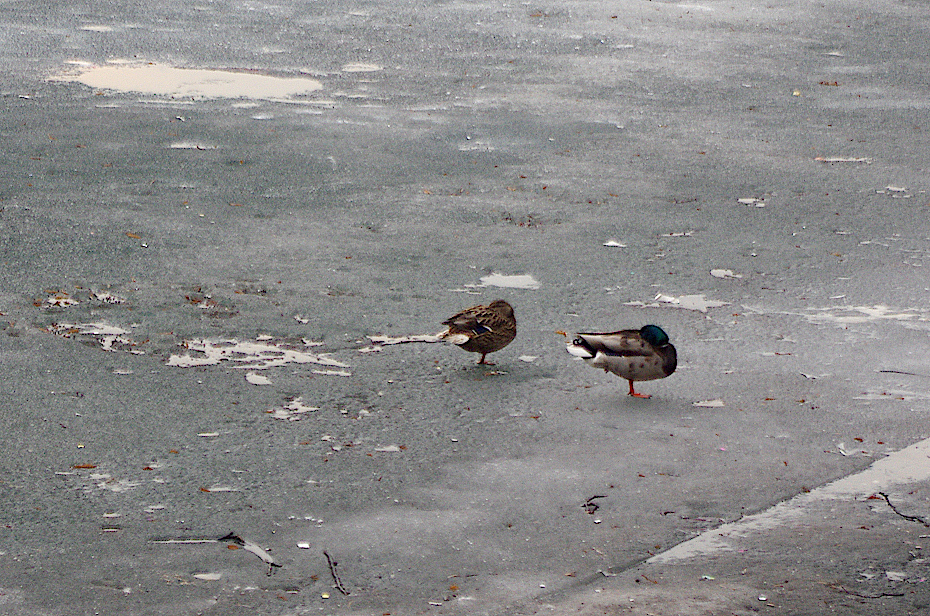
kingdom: Animalia
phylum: Chordata
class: Aves
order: Anseriformes
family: Anatidae
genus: Anas
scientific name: Anas platyrhynchos
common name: Mallard
